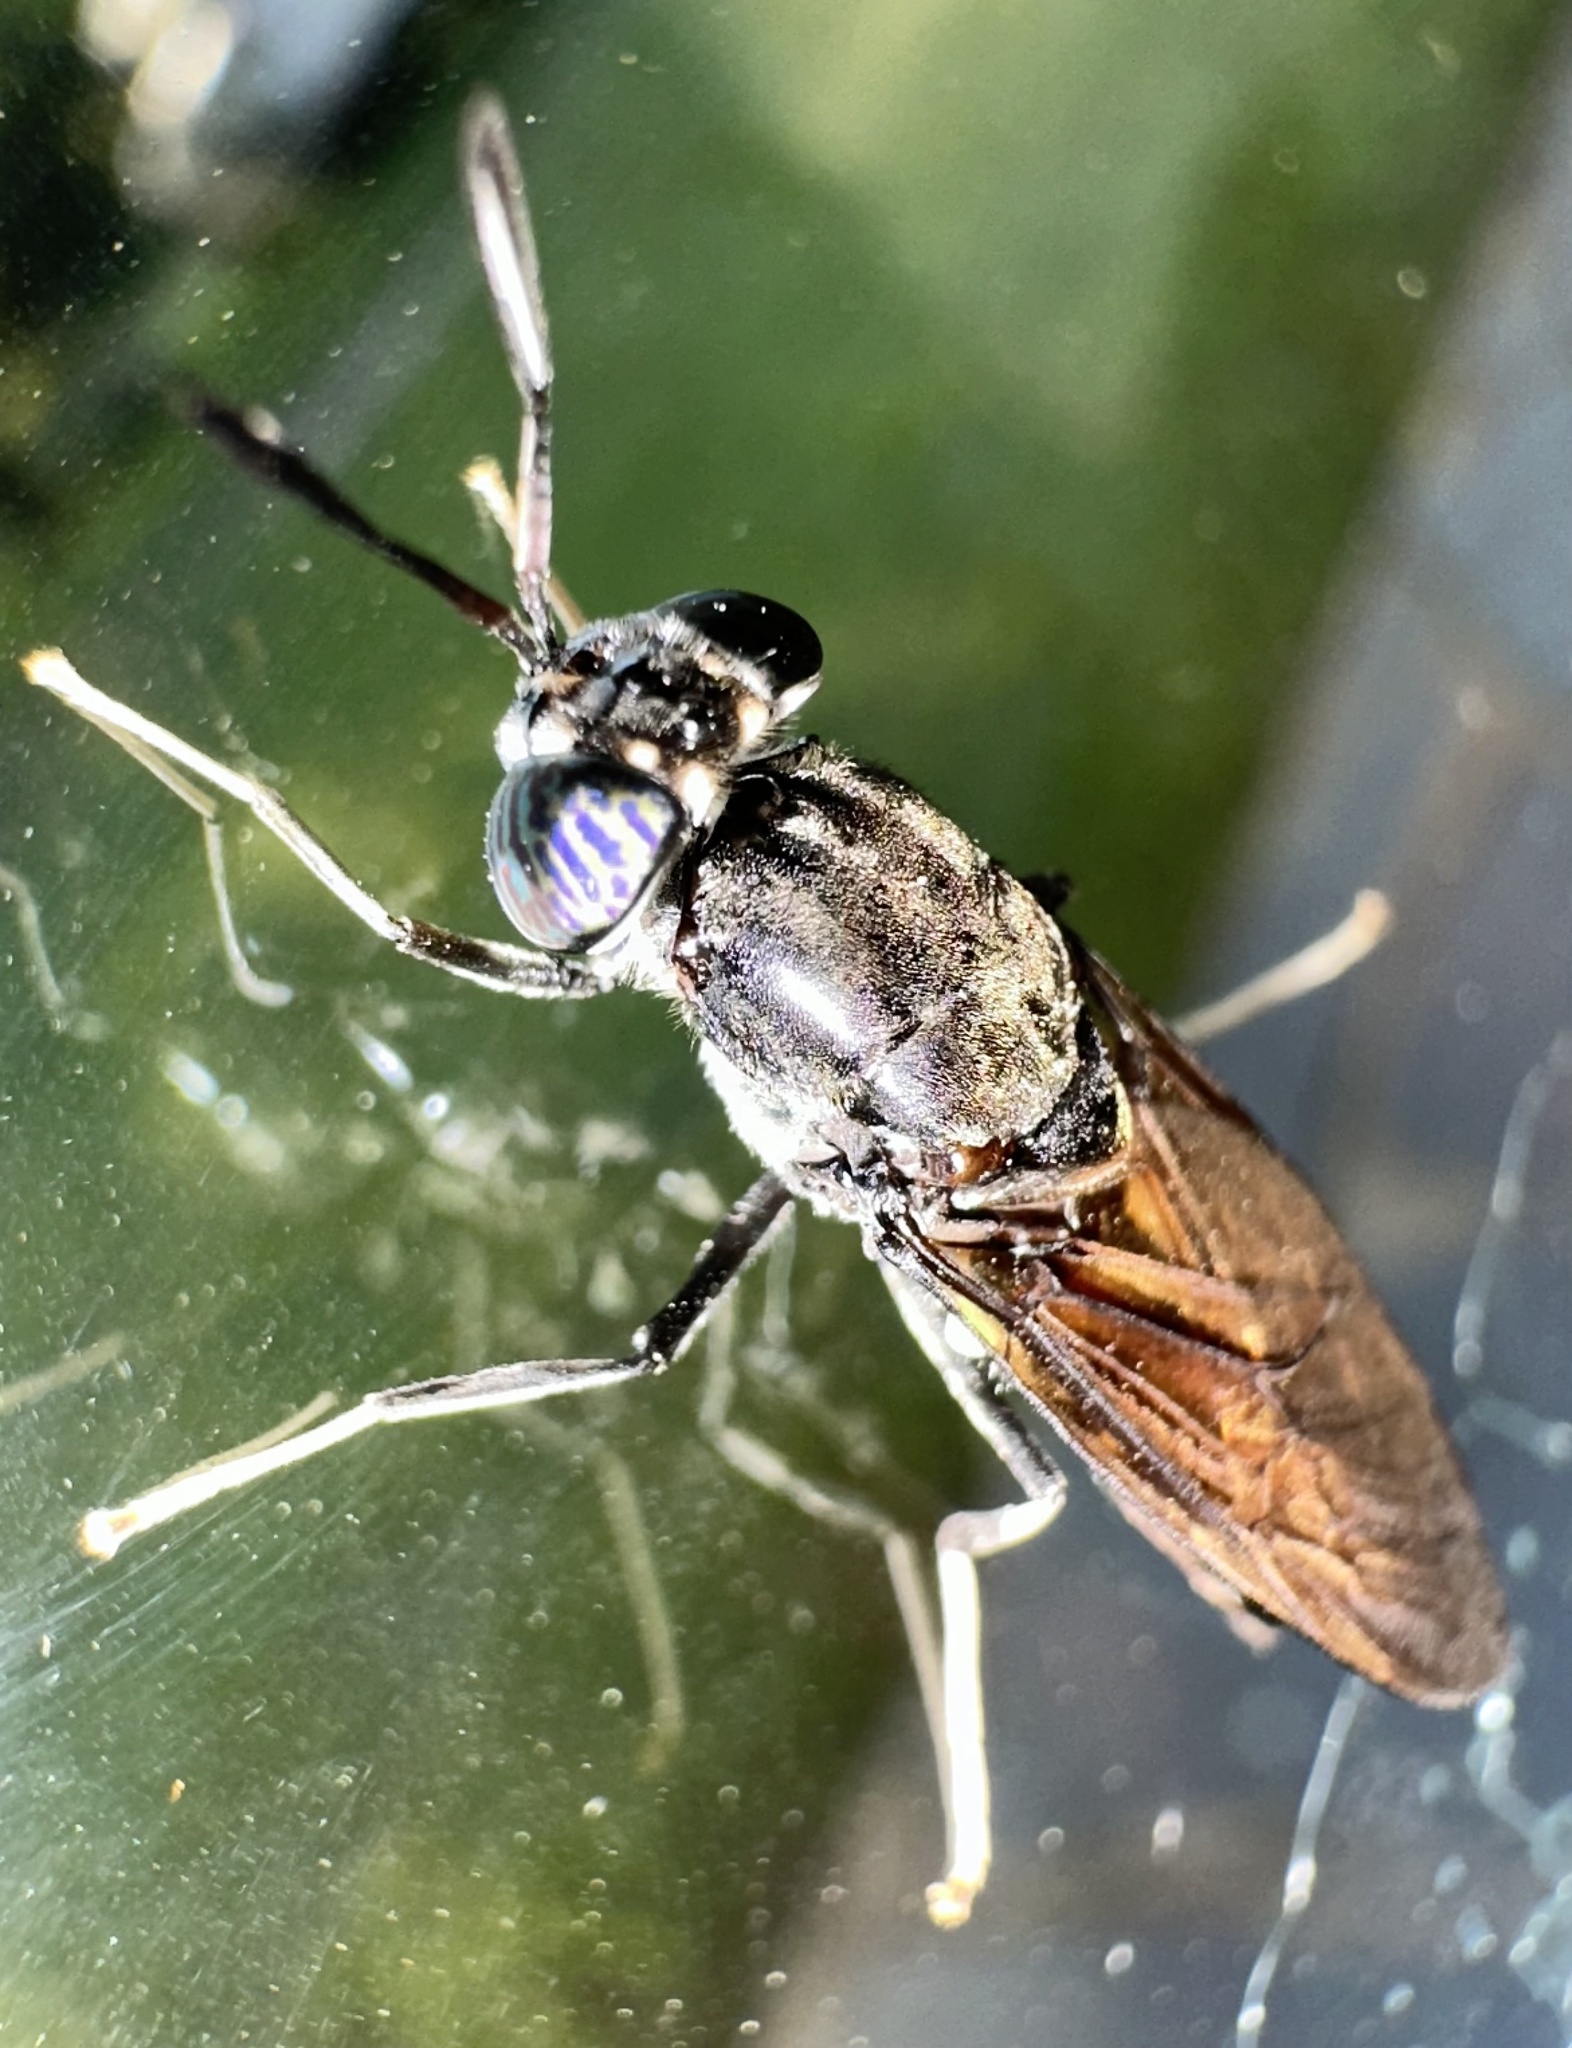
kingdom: Animalia
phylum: Arthropoda
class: Insecta
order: Diptera
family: Stratiomyidae
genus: Hermetia
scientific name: Hermetia illucens
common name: Black soldier fly
